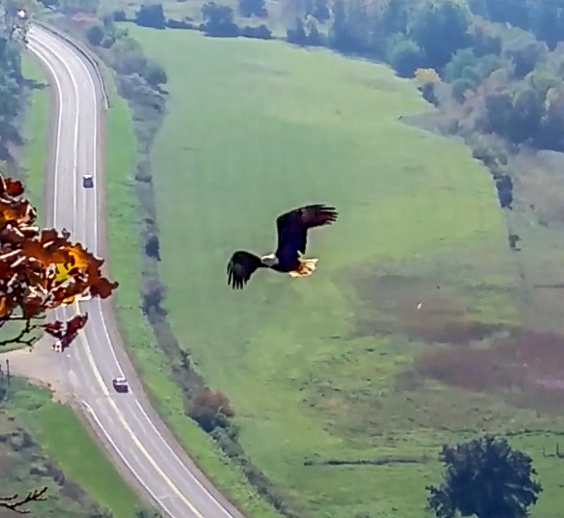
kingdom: Animalia
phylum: Chordata
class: Aves
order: Accipitriformes
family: Accipitridae
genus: Haliaeetus
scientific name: Haliaeetus leucocephalus
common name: Bald eagle
